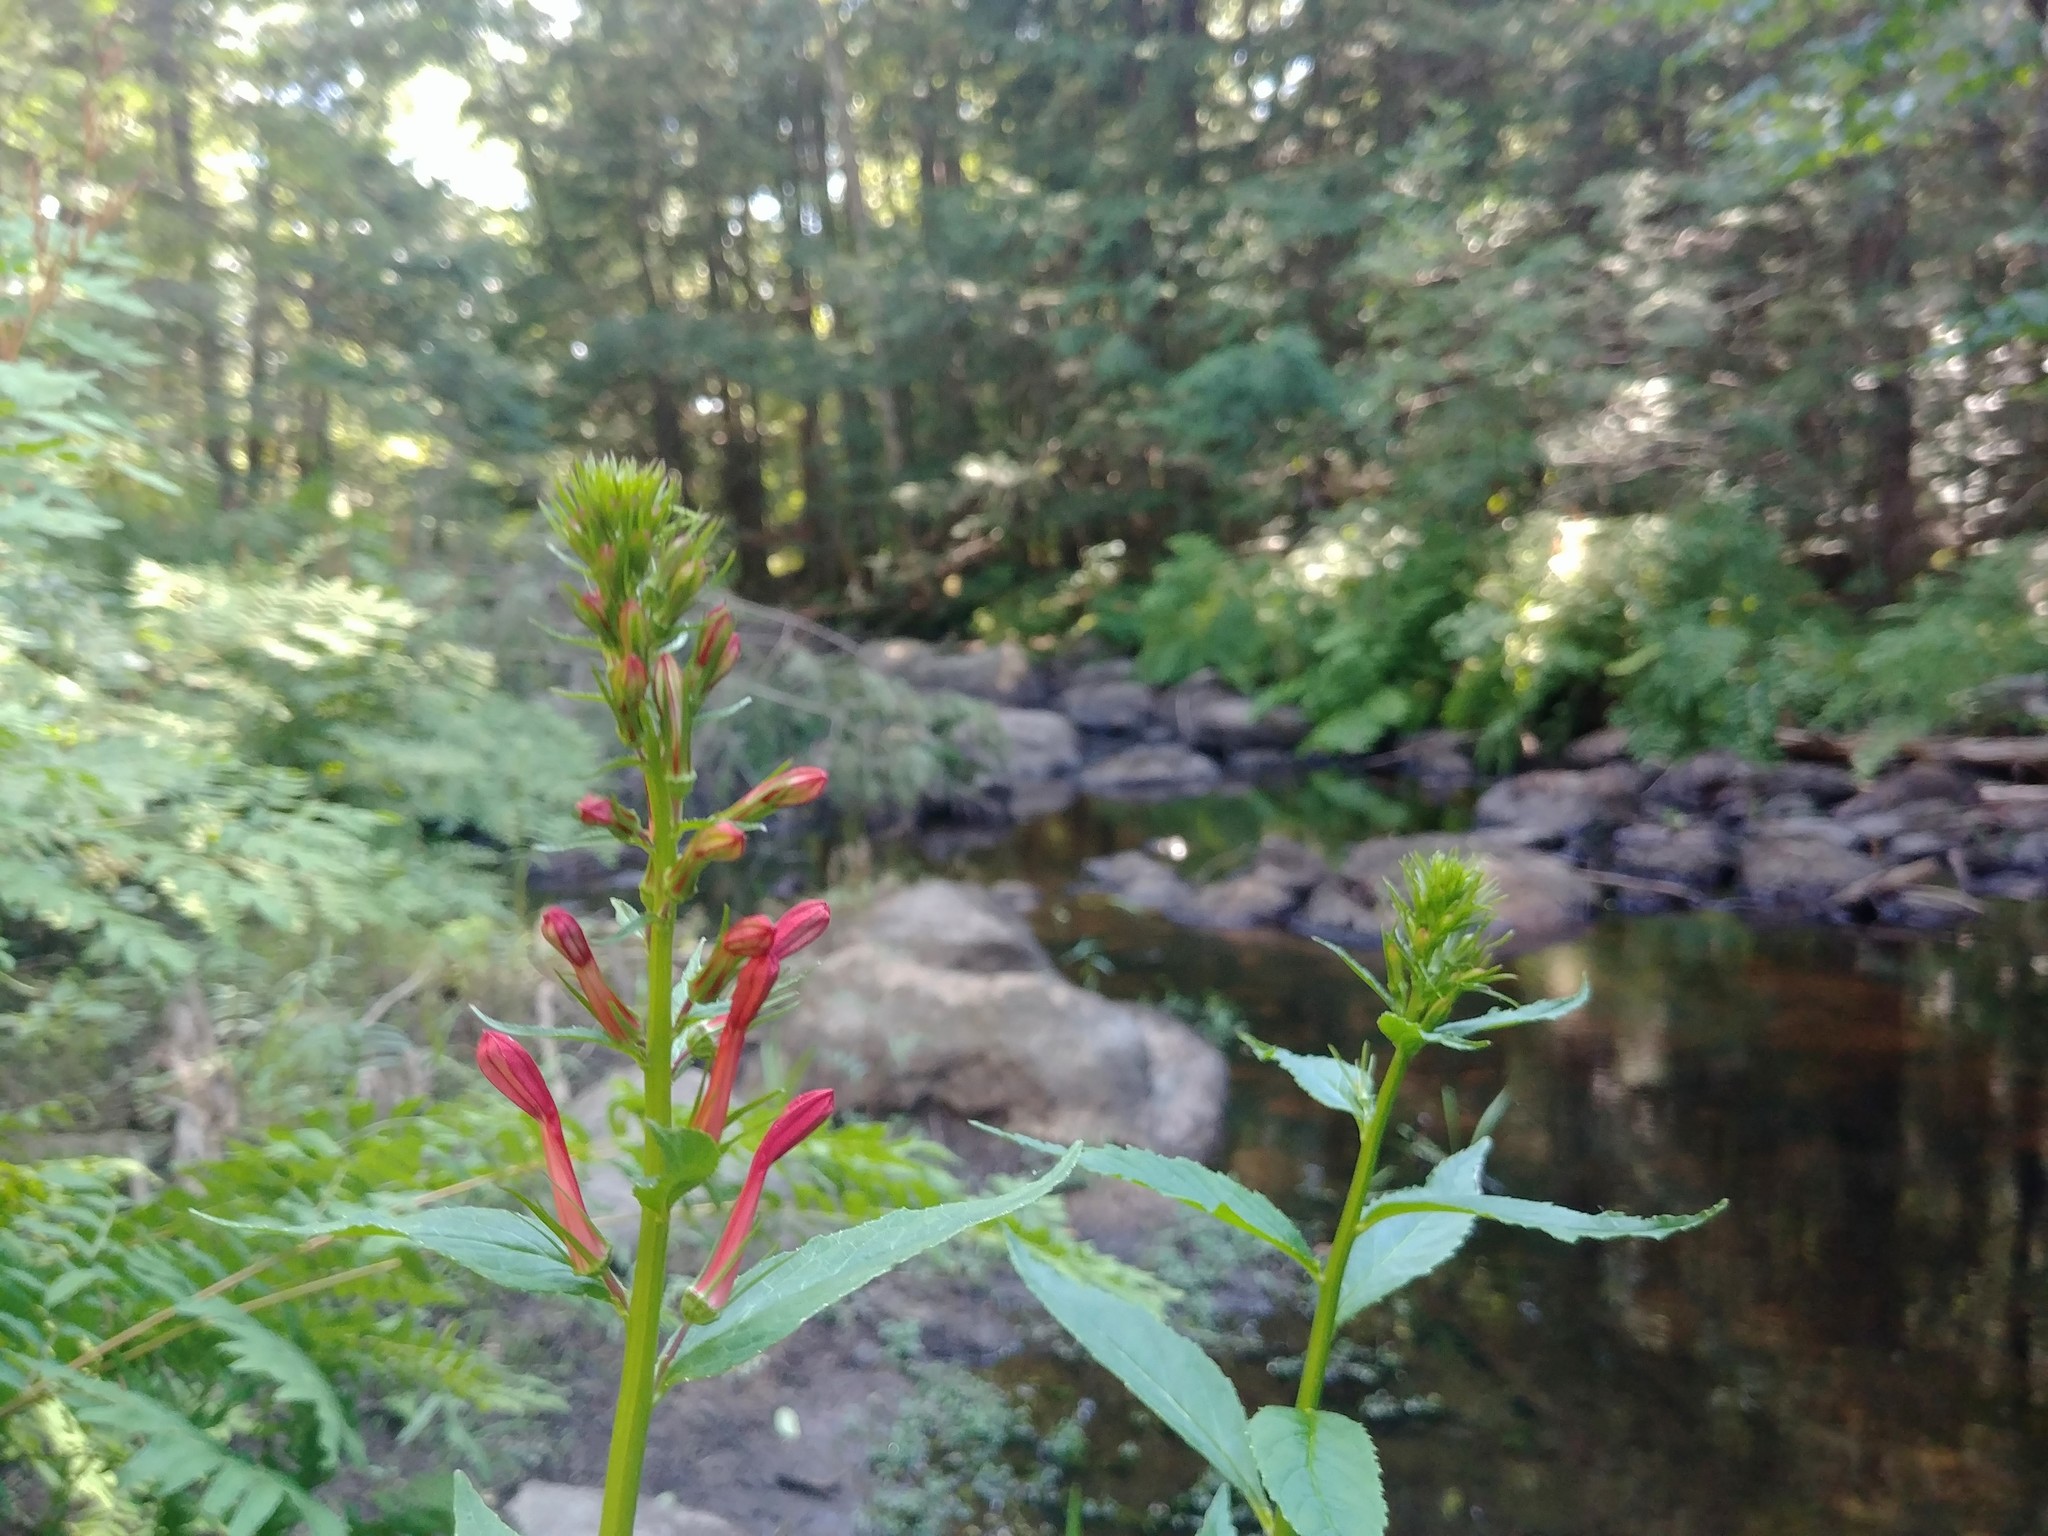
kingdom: Plantae
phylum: Tracheophyta
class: Magnoliopsida
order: Asterales
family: Campanulaceae
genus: Lobelia
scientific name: Lobelia cardinalis
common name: Cardinal flower
